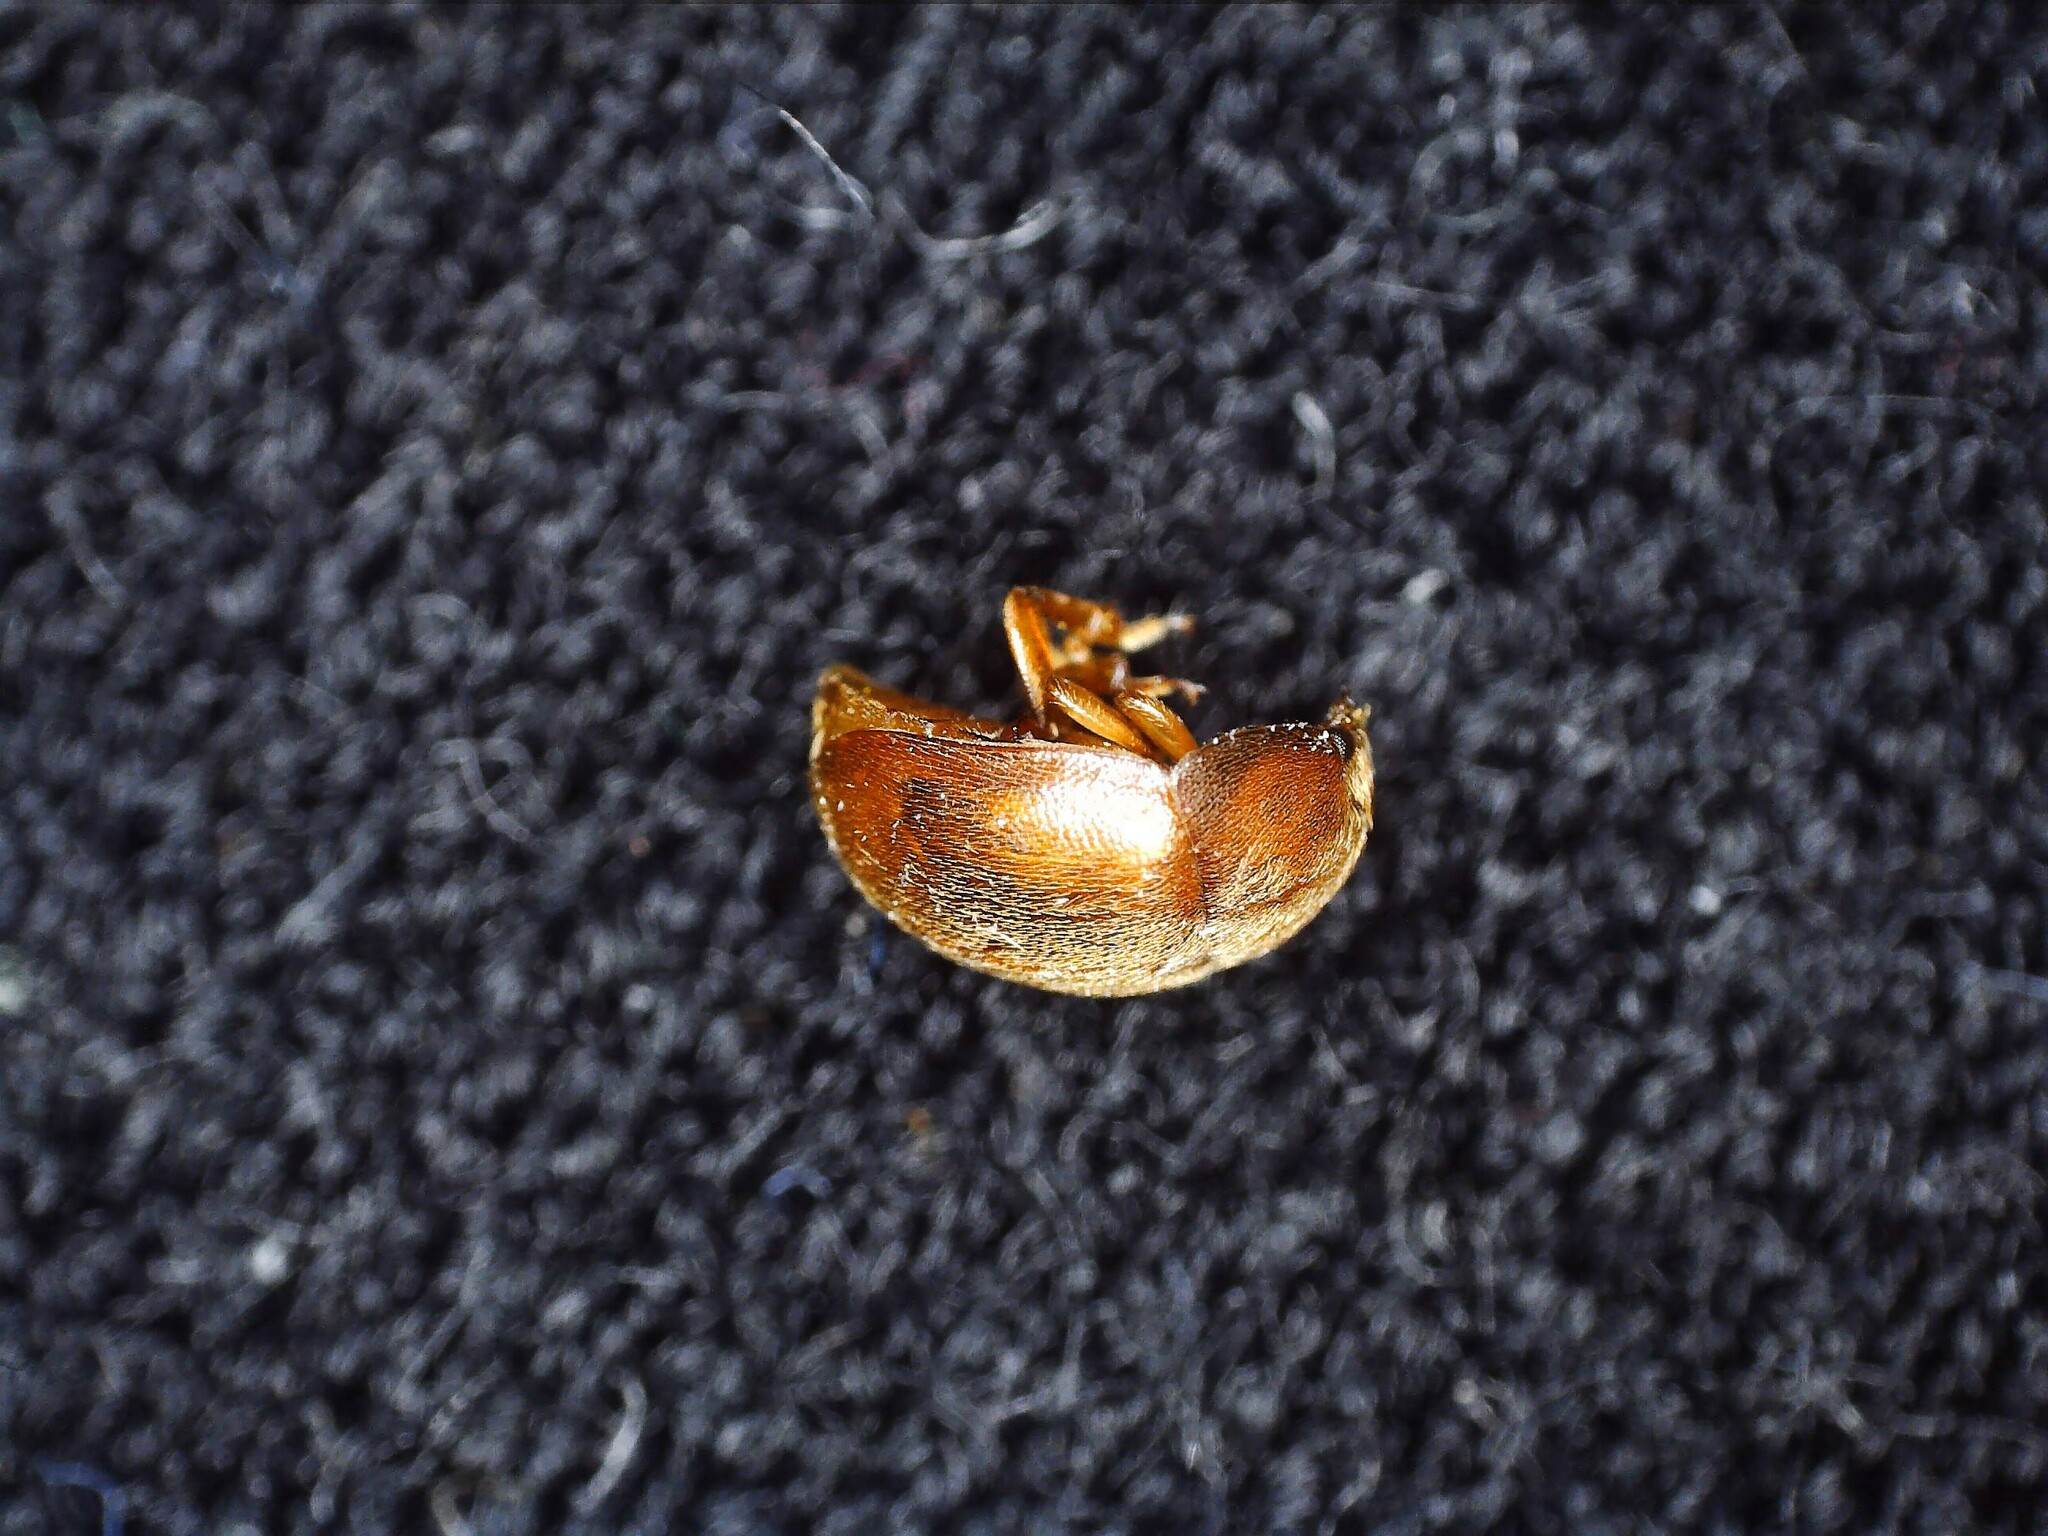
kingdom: Animalia
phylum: Arthropoda
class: Insecta
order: Coleoptera
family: Nitidulidae
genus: Cychramus
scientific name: Cychramus luteus
